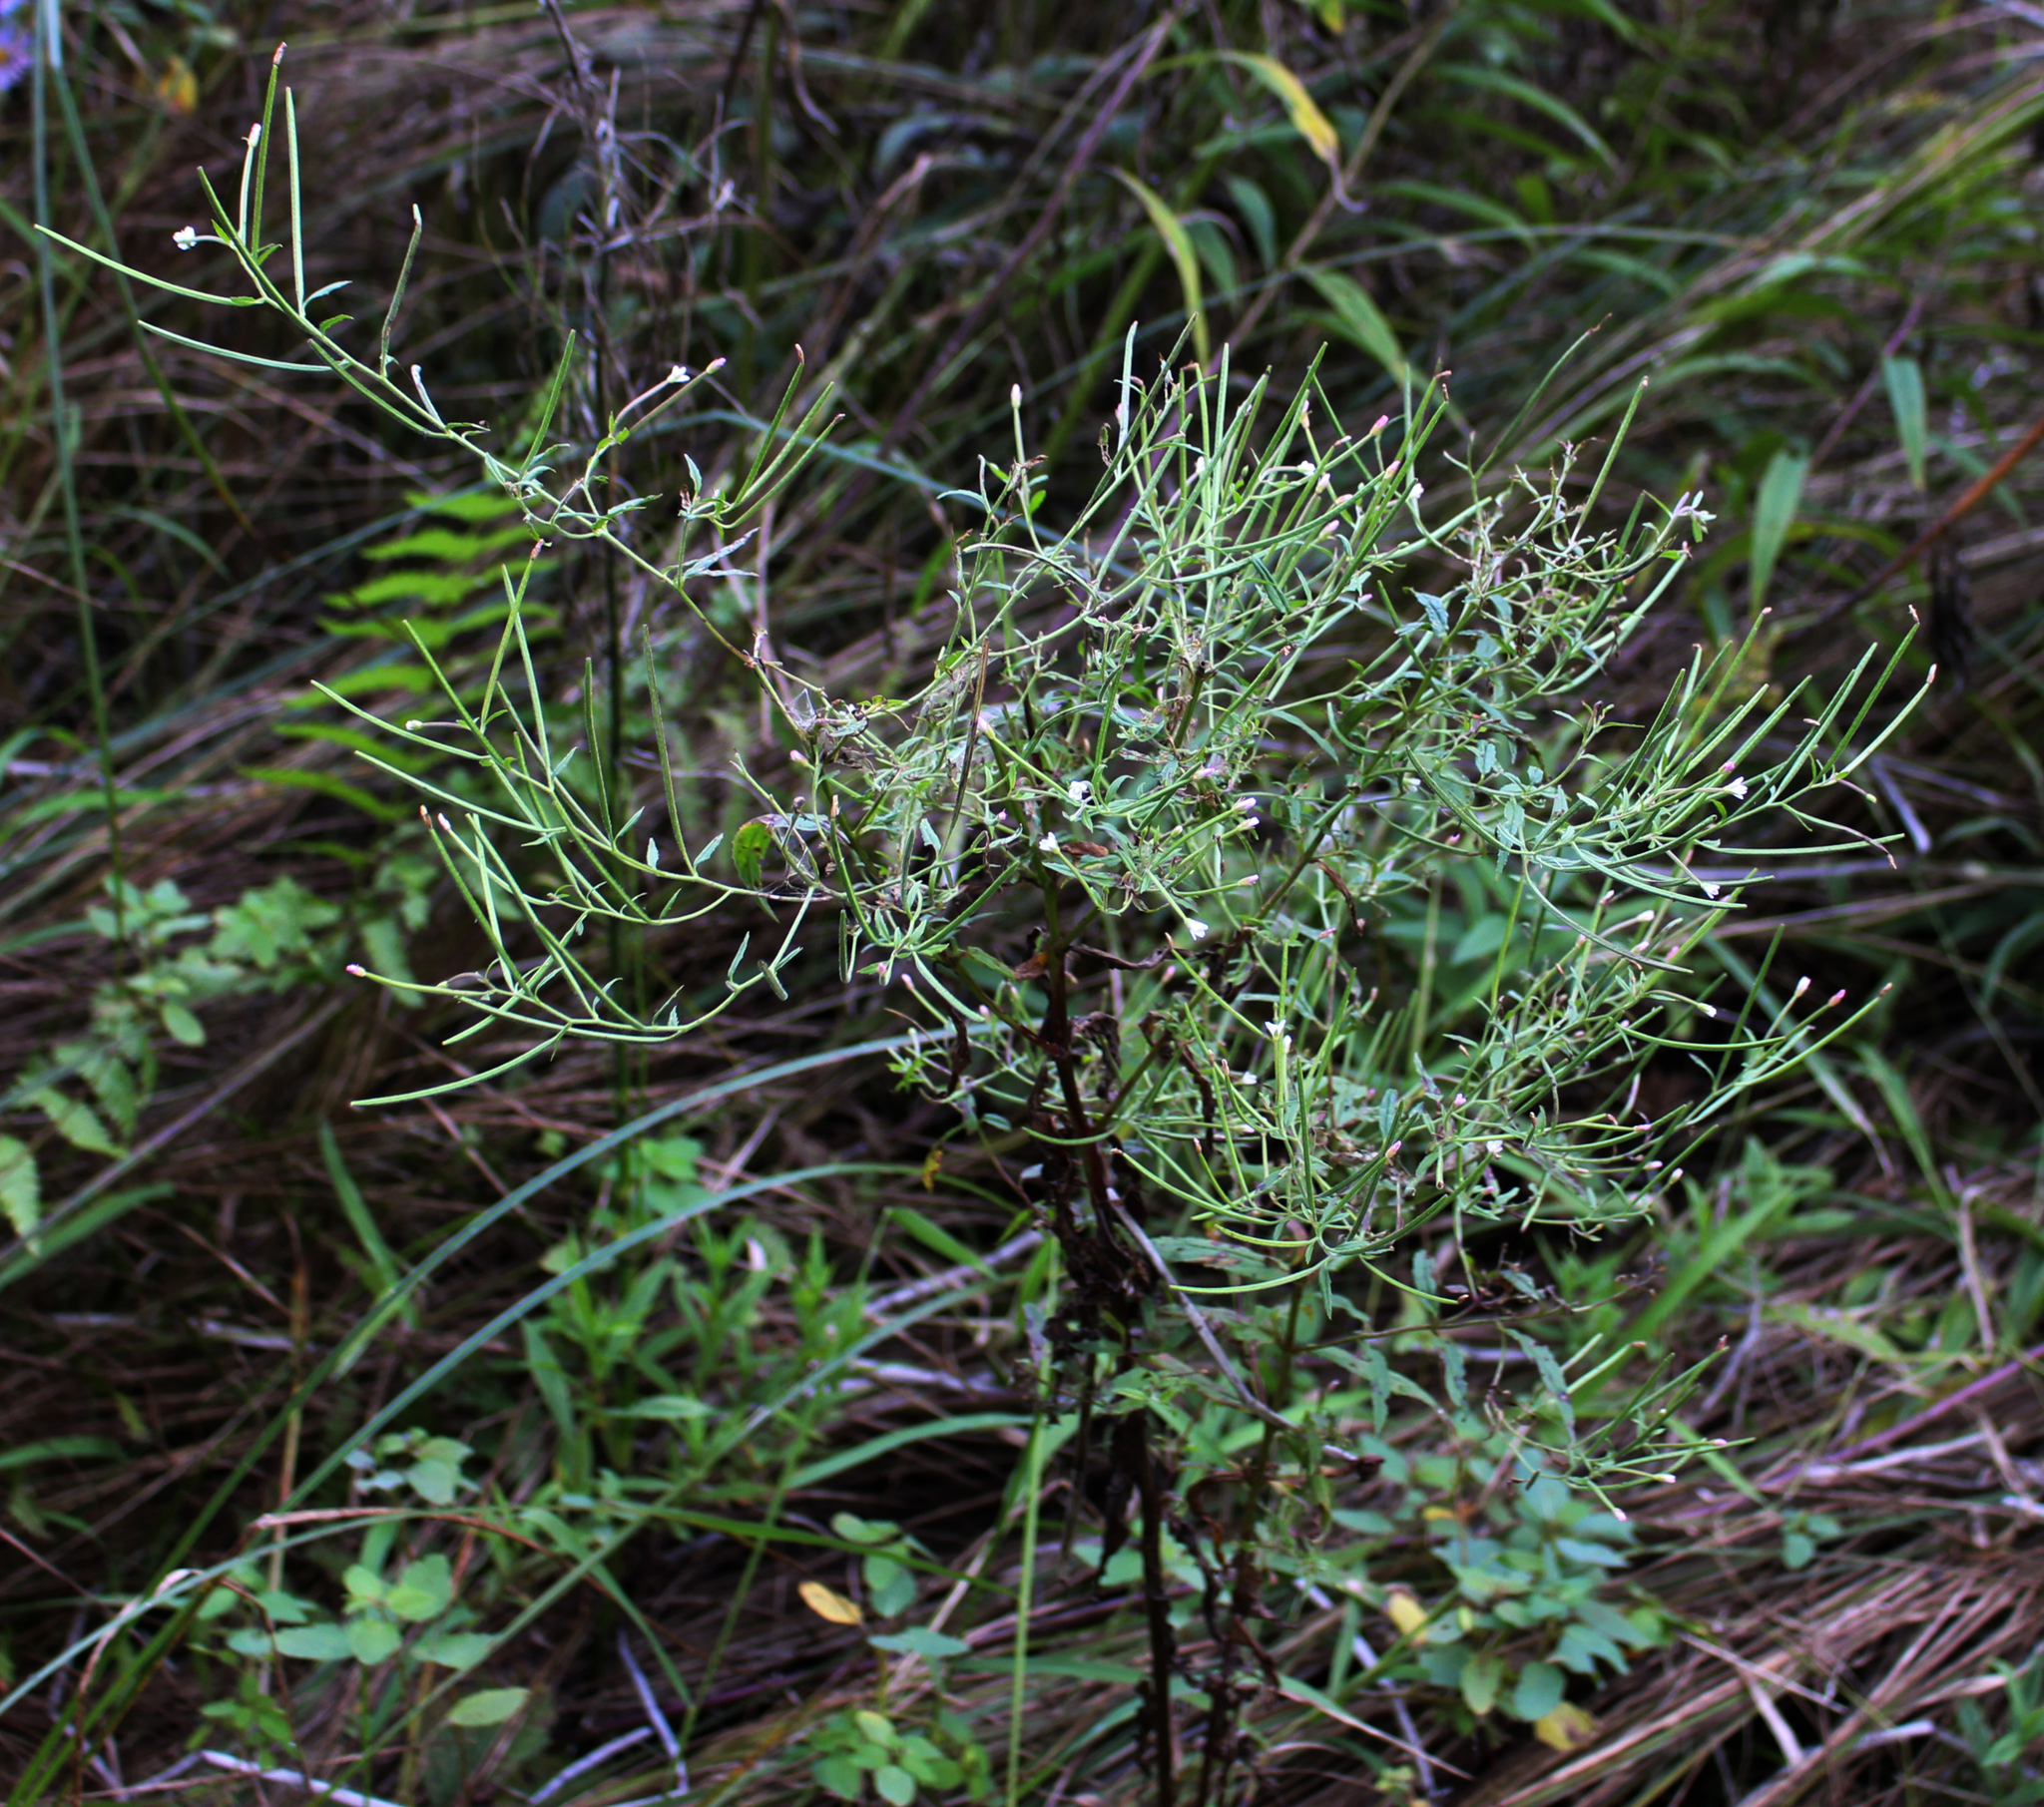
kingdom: Plantae
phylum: Tracheophyta
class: Magnoliopsida
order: Myrtales
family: Onagraceae
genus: Epilobium
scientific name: Epilobium coloratum
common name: Bronze willowherb
